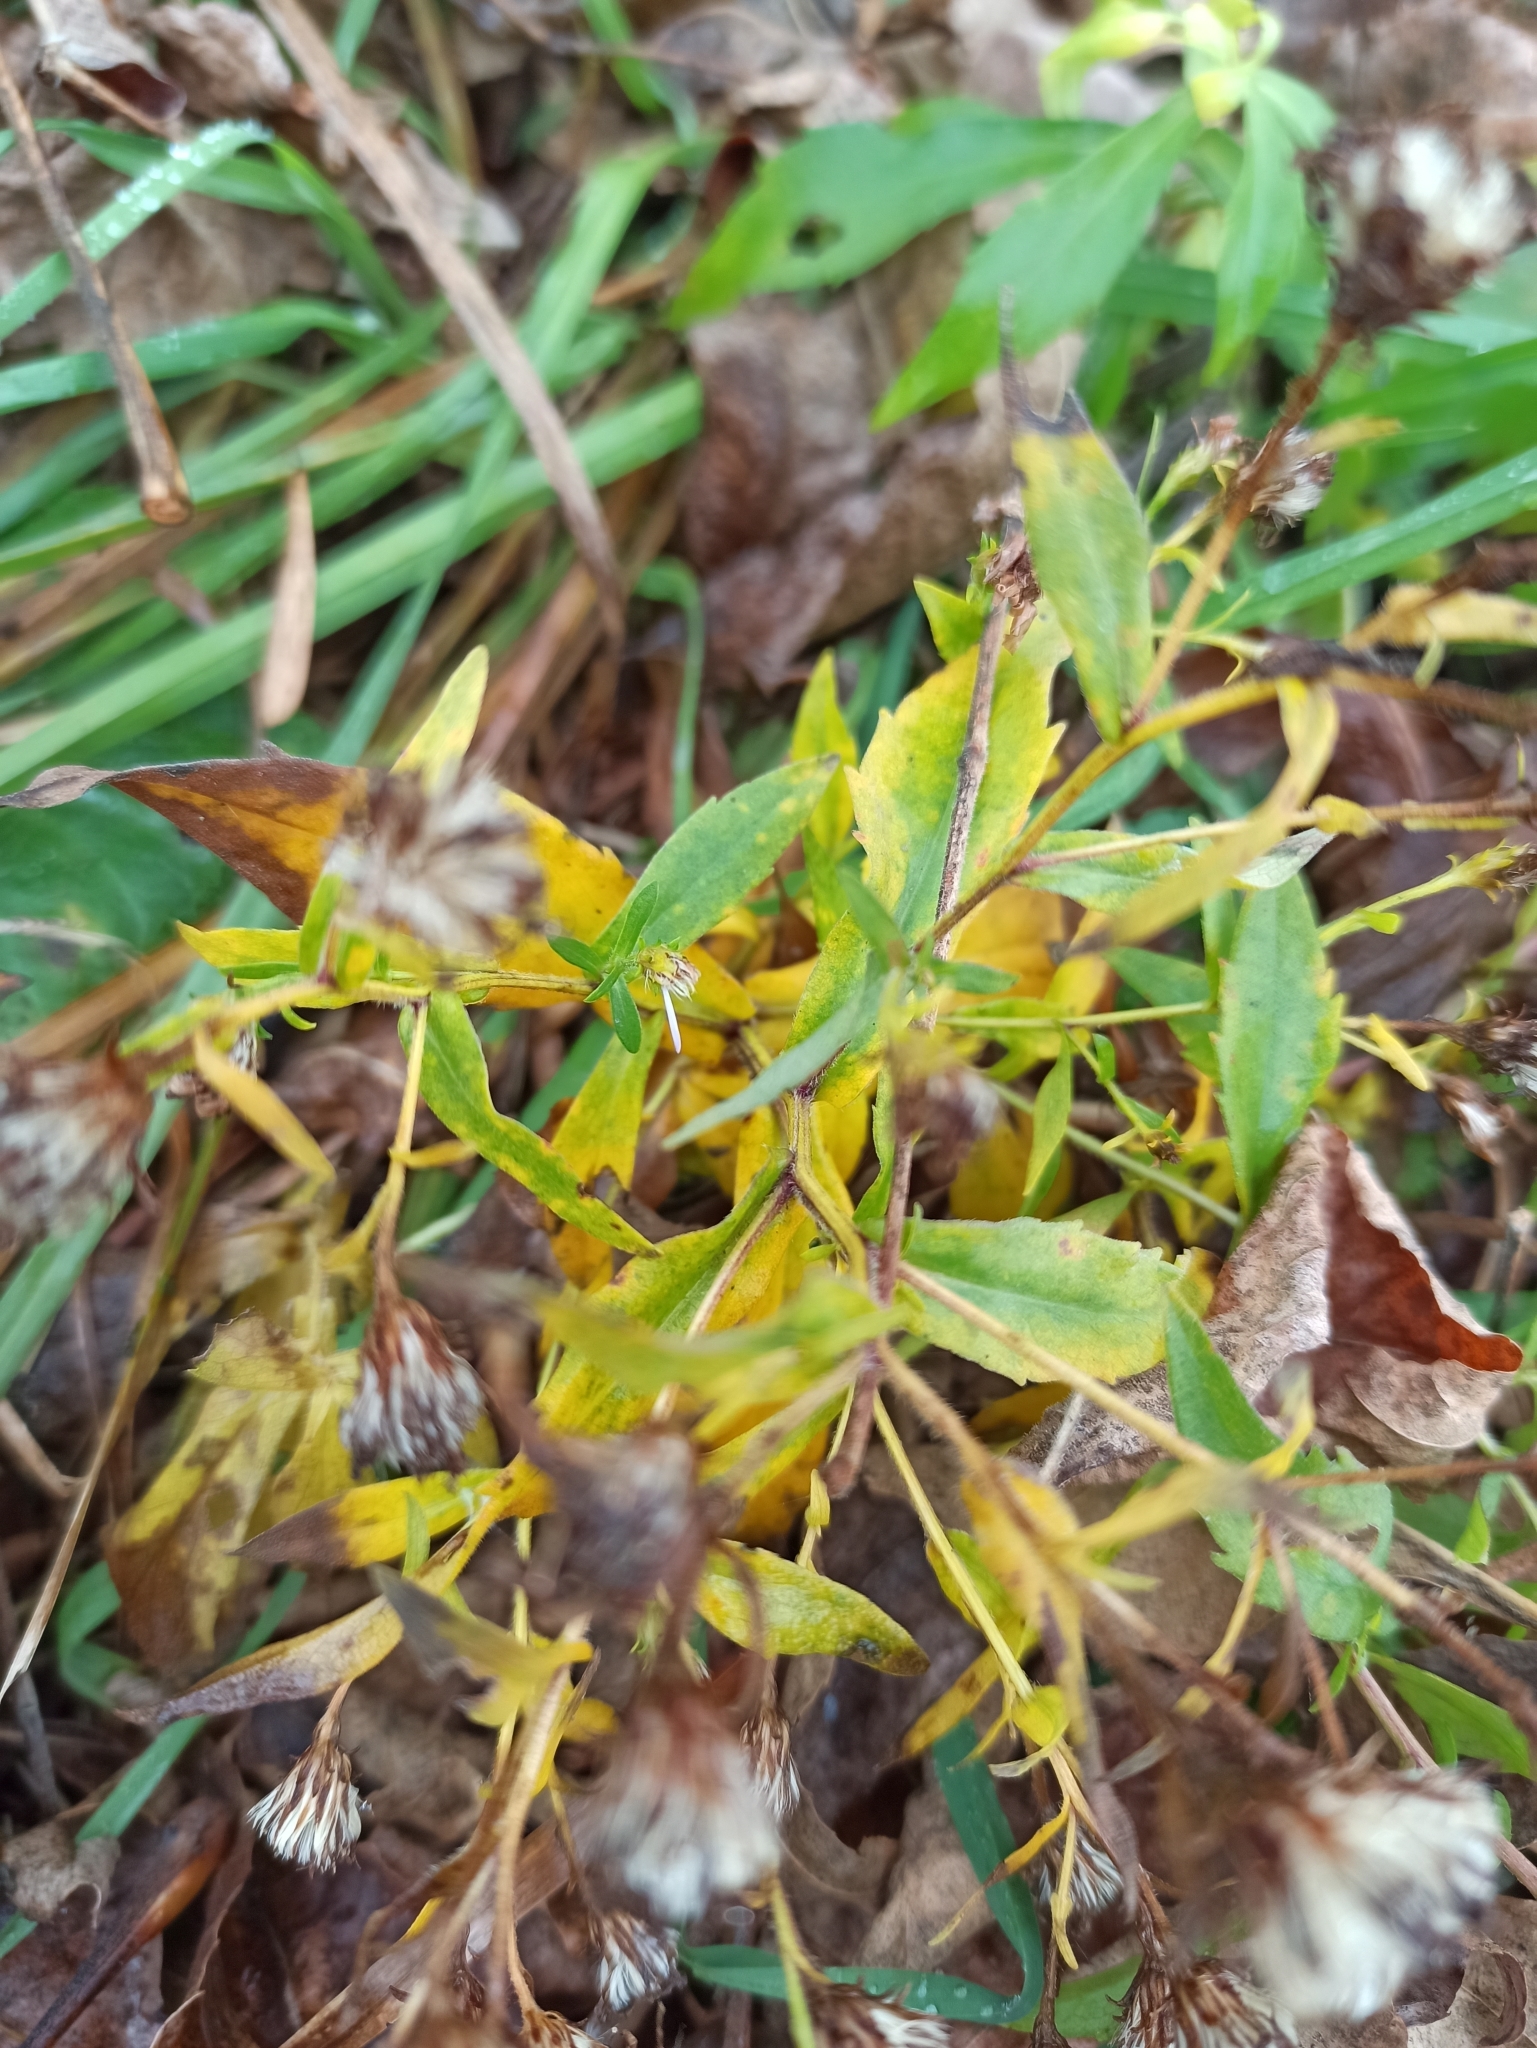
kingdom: Plantae
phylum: Tracheophyta
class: Magnoliopsida
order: Asterales
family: Asteraceae
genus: Symphyotrichum
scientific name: Symphyotrichum
